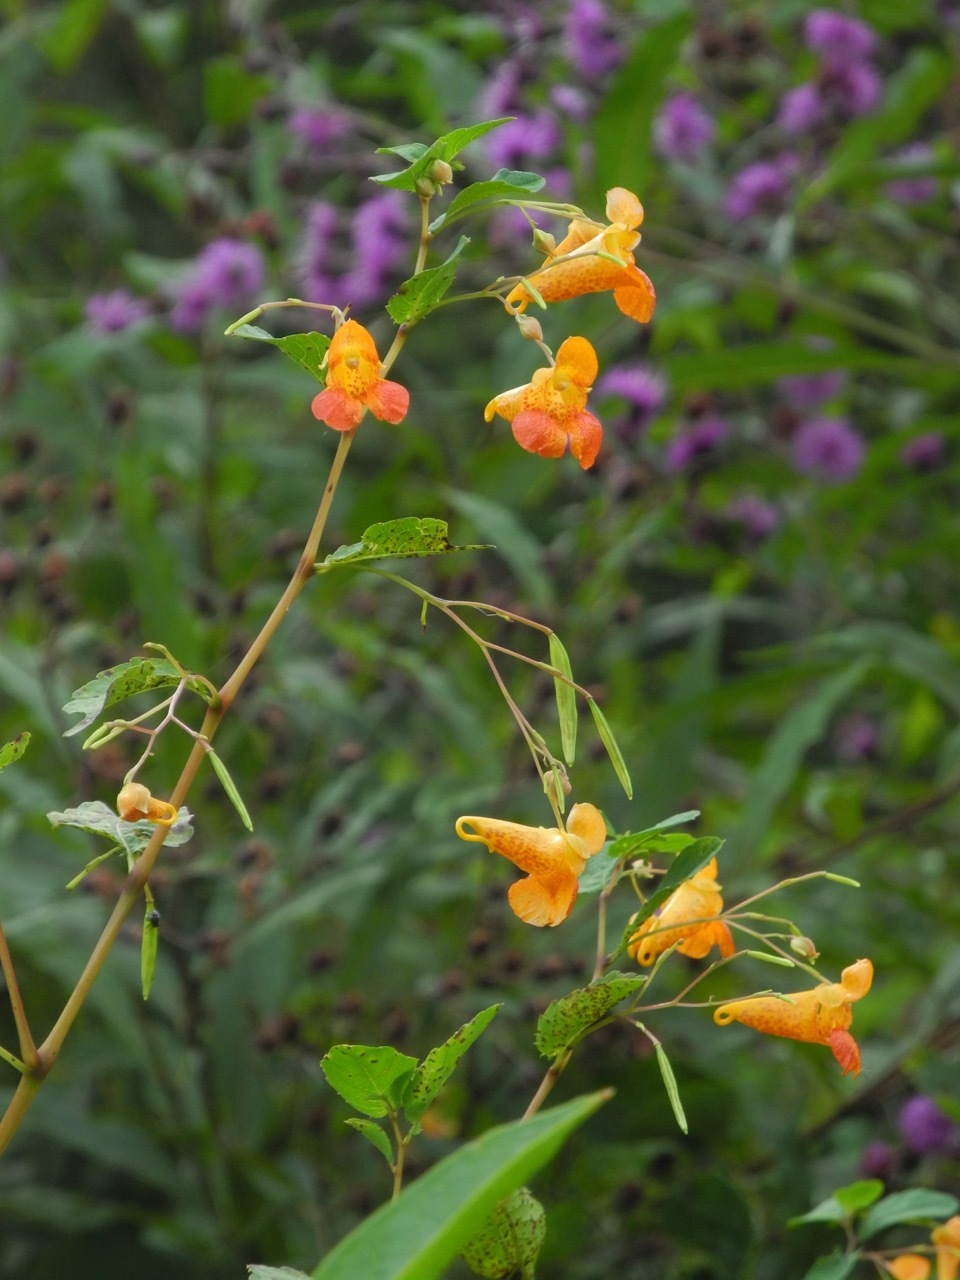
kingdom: Plantae
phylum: Tracheophyta
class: Magnoliopsida
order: Ericales
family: Balsaminaceae
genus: Impatiens
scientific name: Impatiens capensis
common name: Orange balsam
